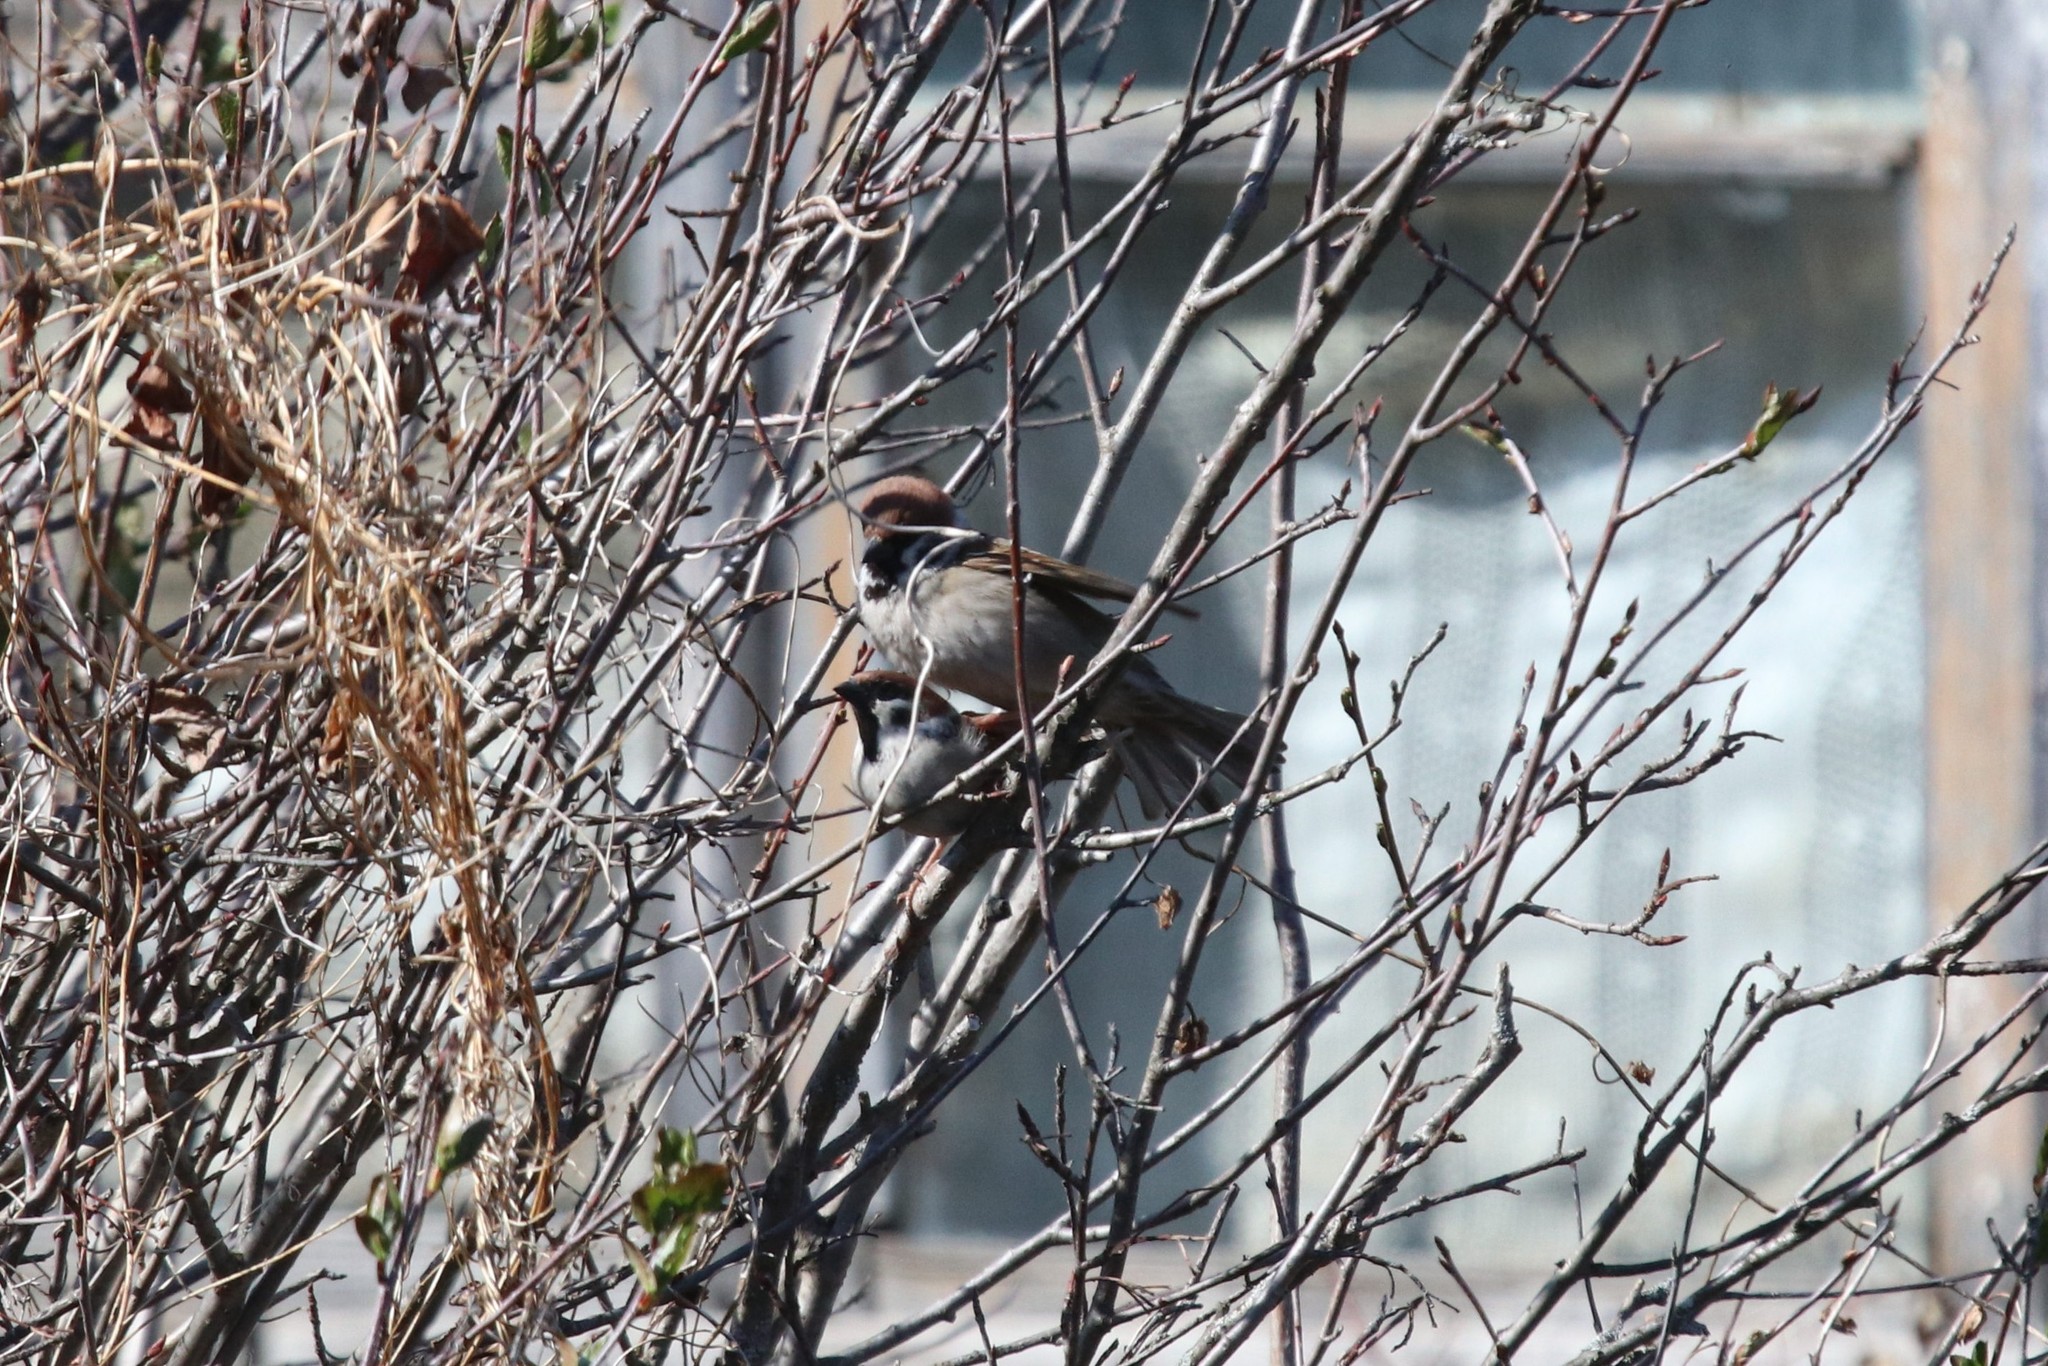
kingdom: Animalia
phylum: Chordata
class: Aves
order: Passeriformes
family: Passeridae
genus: Passer
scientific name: Passer montanus
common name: Eurasian tree sparrow
